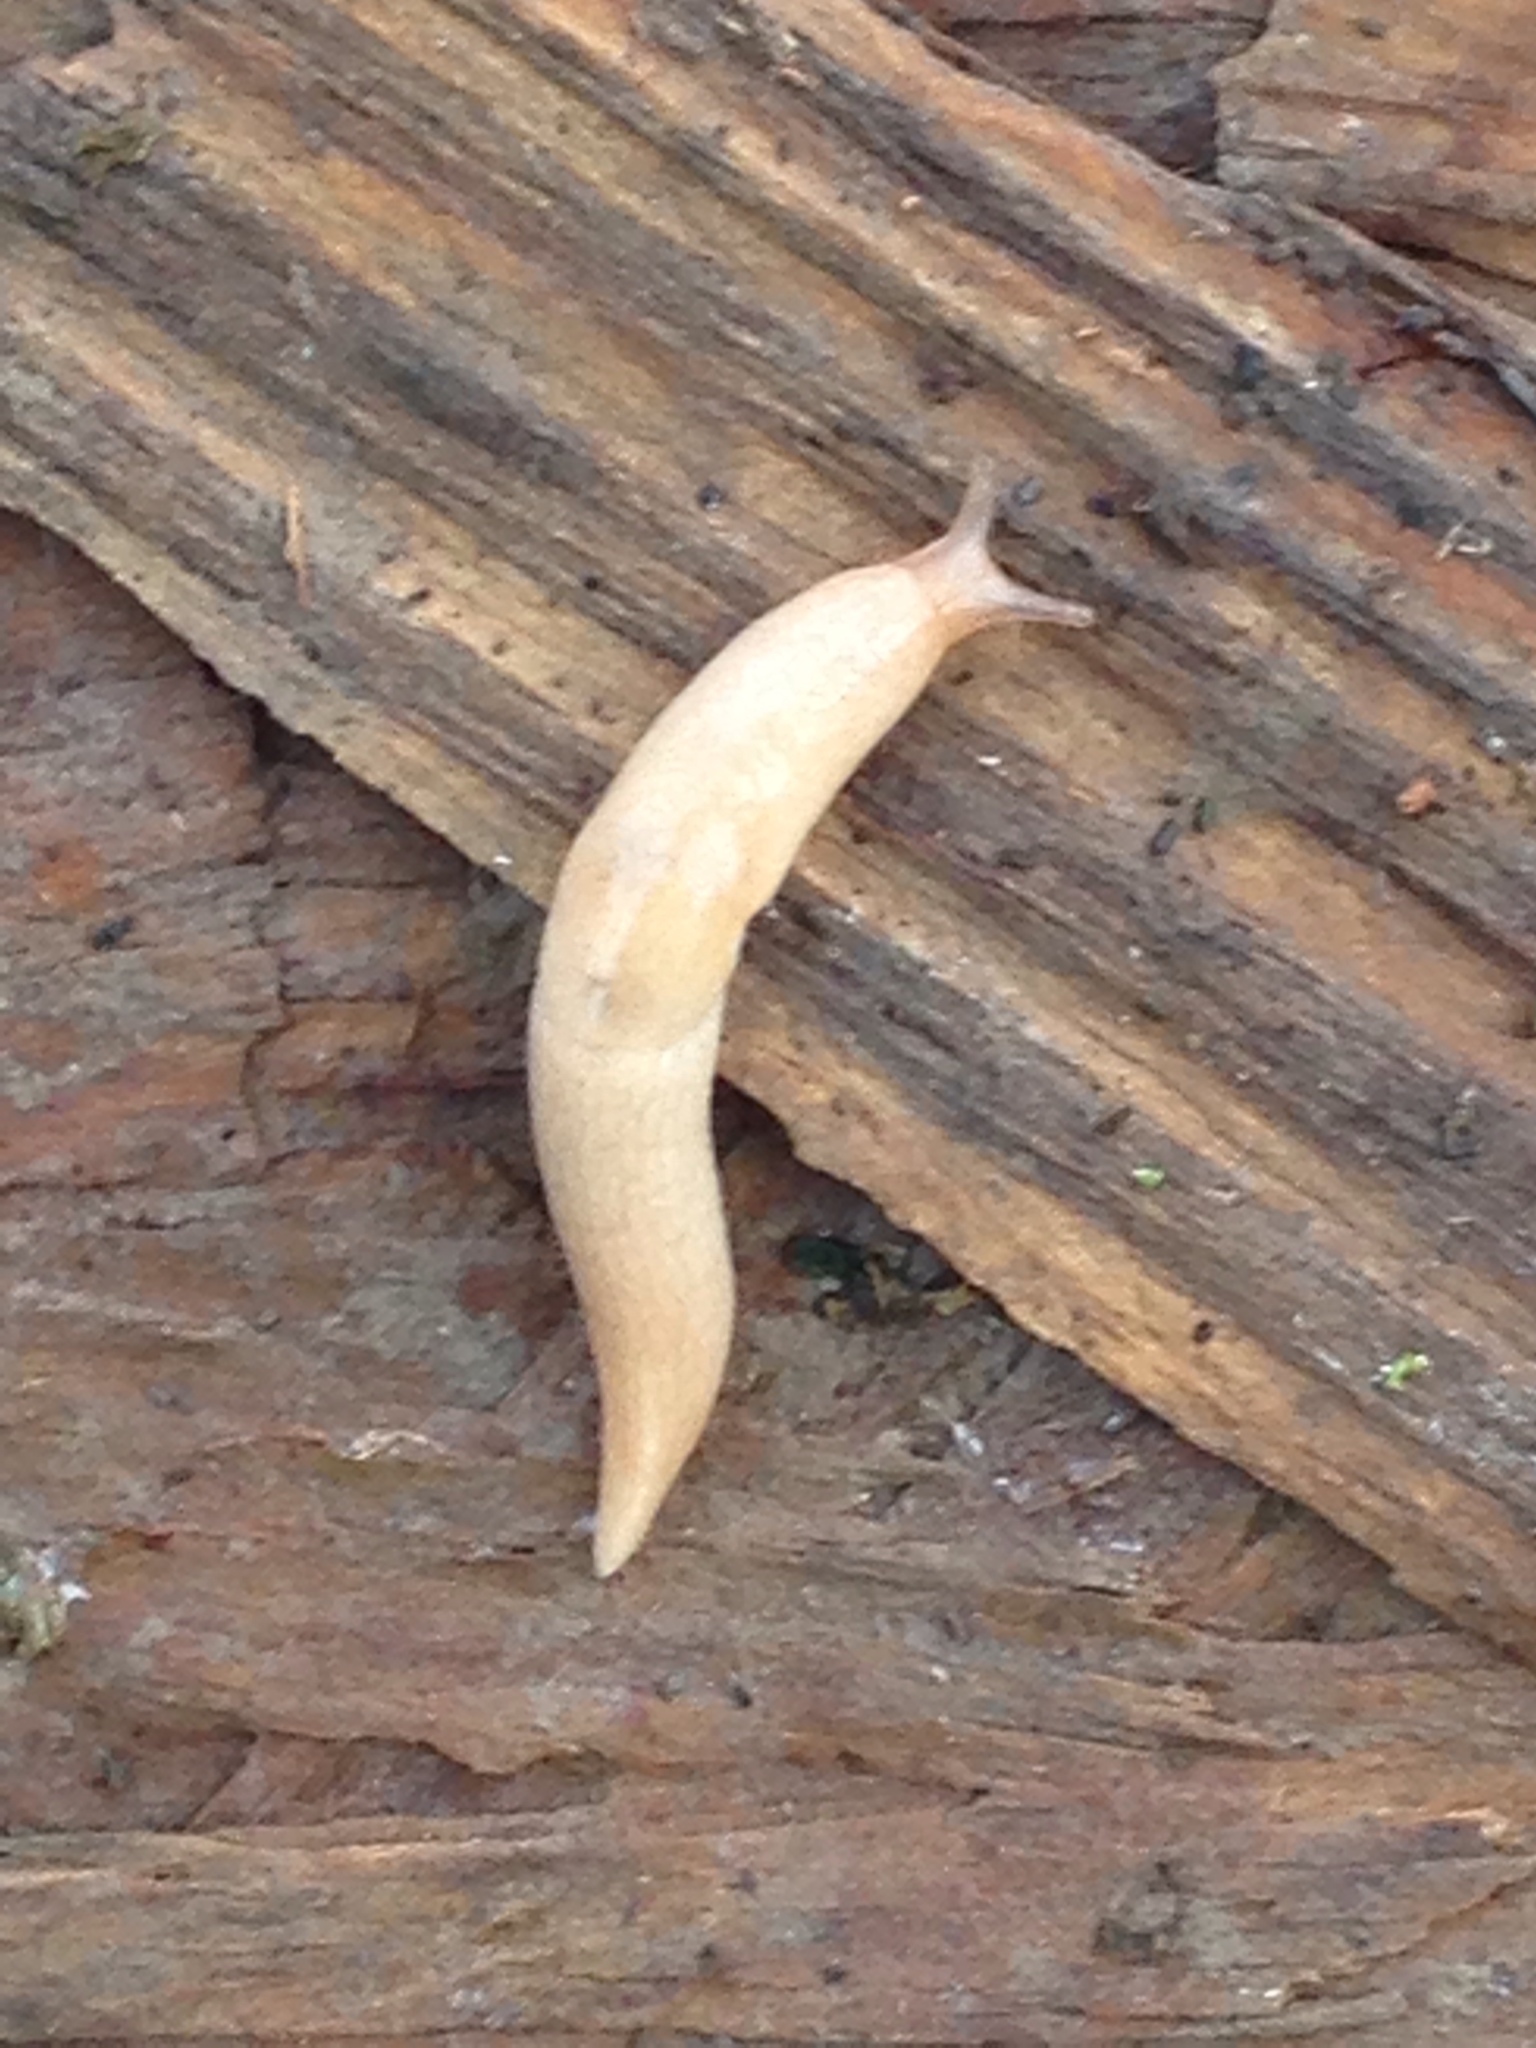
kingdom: Animalia
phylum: Mollusca
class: Gastropoda
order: Stylommatophora
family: Agriolimacidae
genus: Deroceras
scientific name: Deroceras reticulatum
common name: Gray field slug
